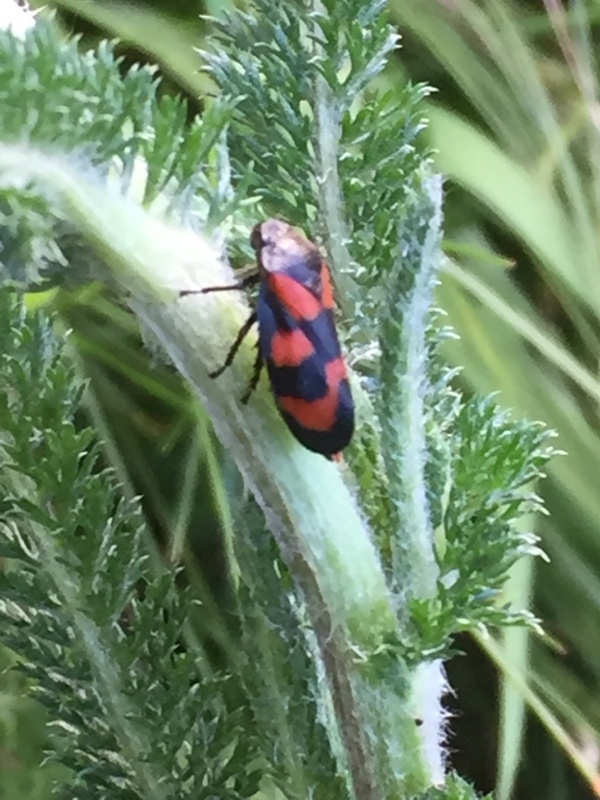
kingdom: Animalia
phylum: Arthropoda
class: Insecta
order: Hemiptera
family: Cercopidae
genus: Cercopis
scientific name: Cercopis vulnerata
